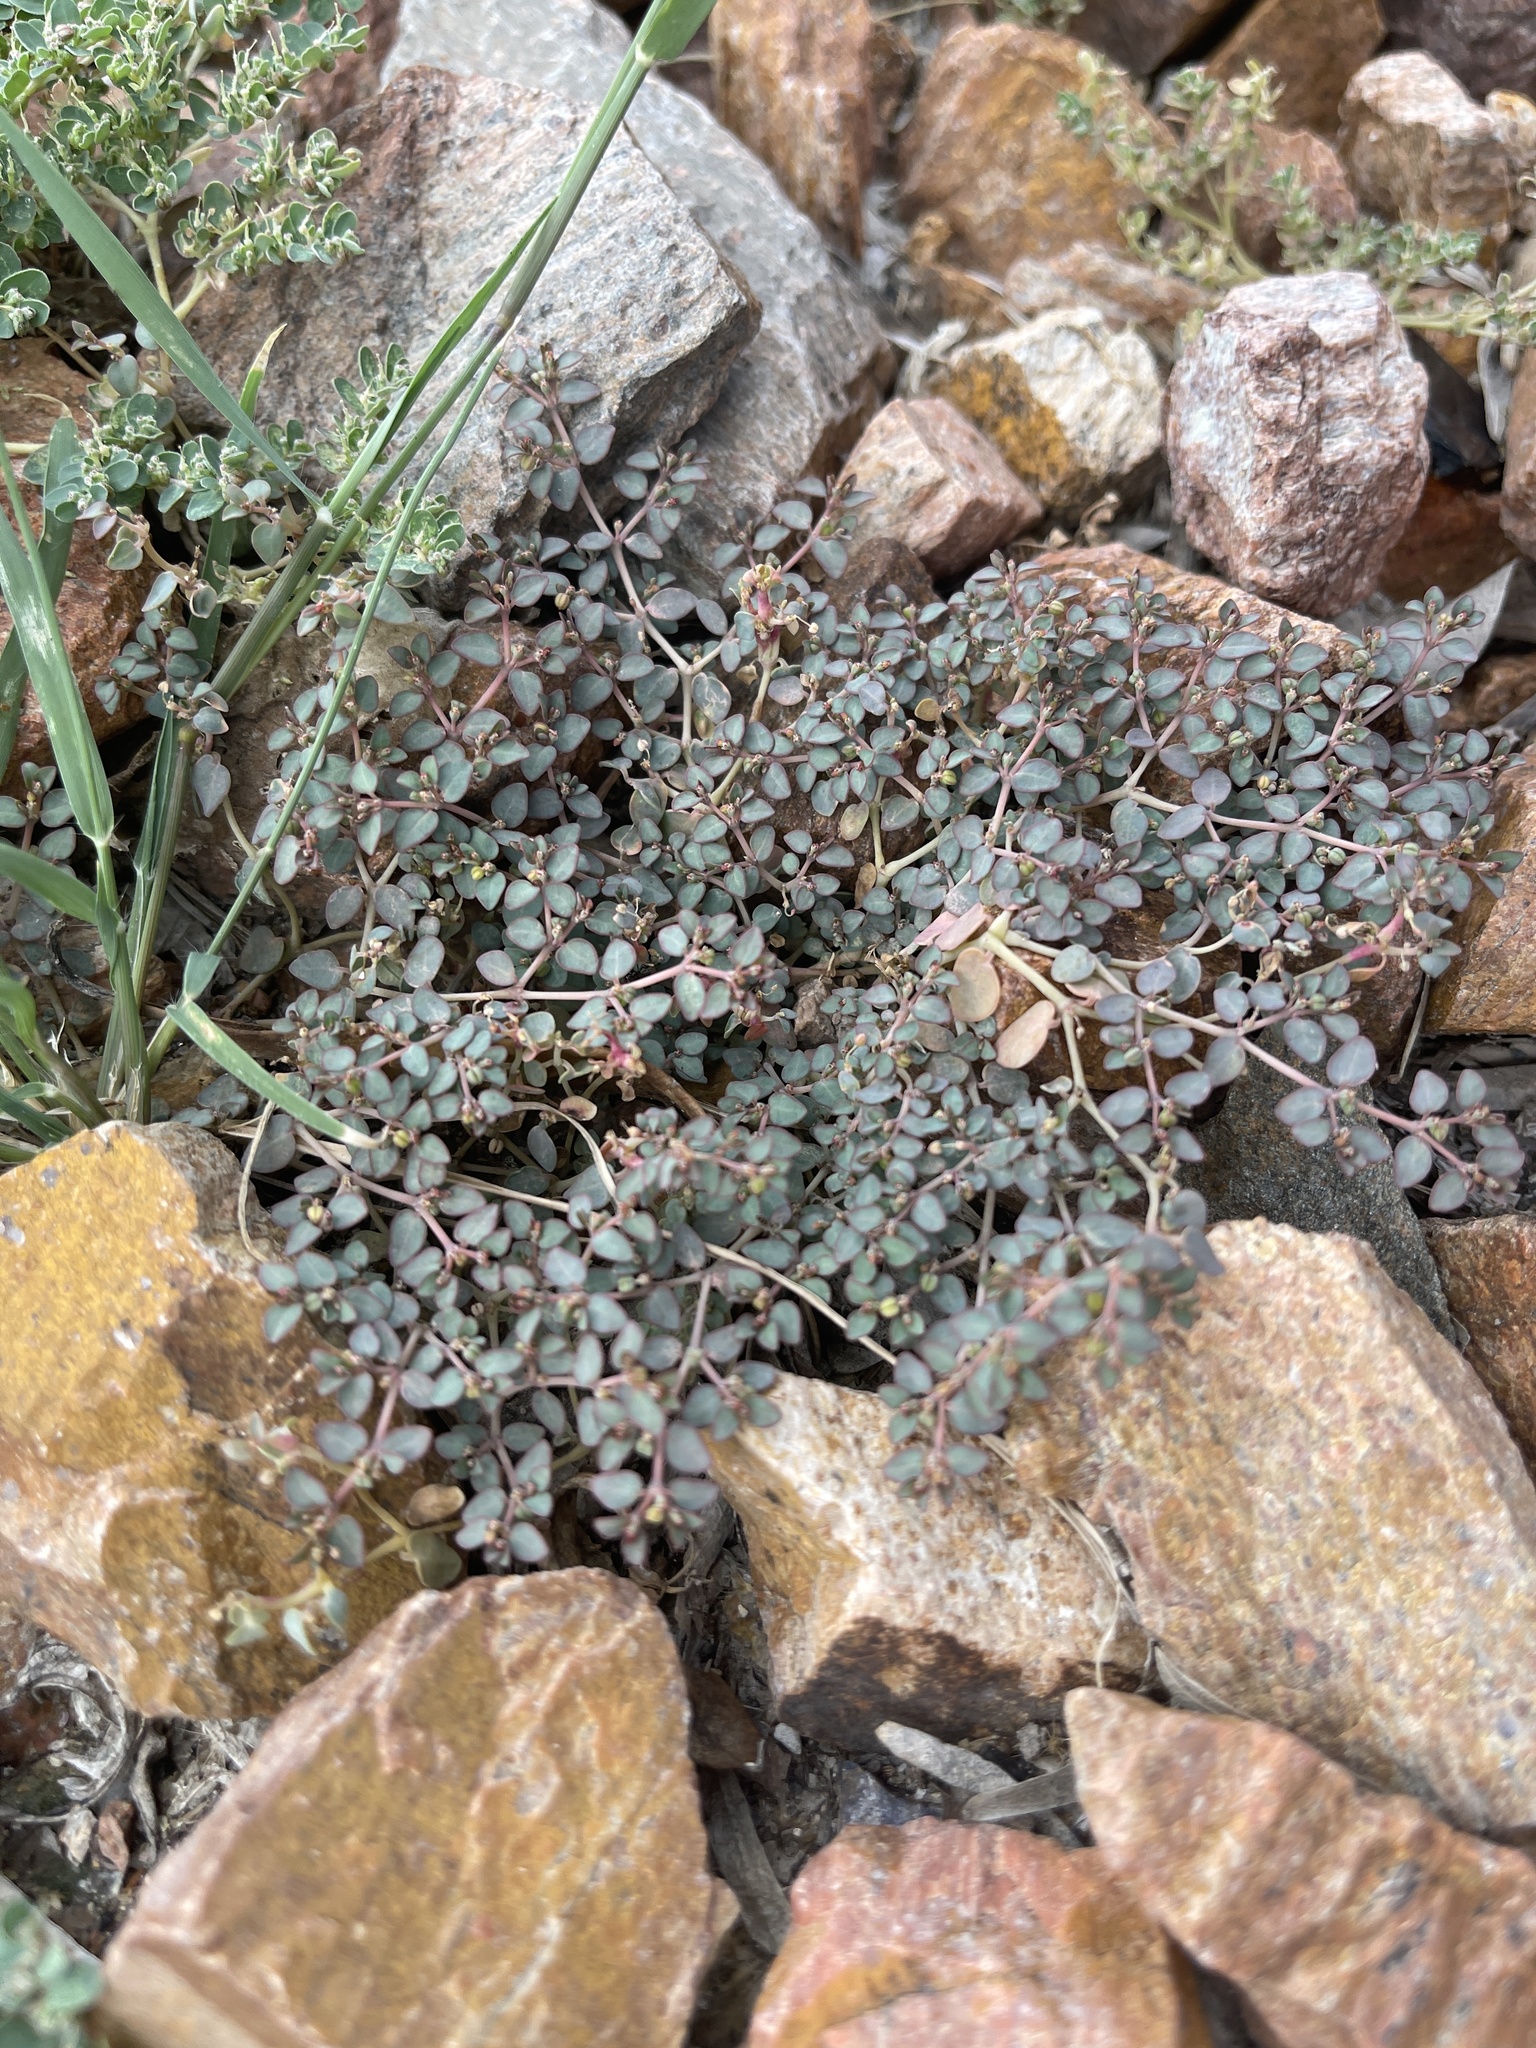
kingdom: Plantae
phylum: Tracheophyta
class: Magnoliopsida
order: Malpighiales
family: Euphorbiaceae
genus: Euphorbia
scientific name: Euphorbia micromera
